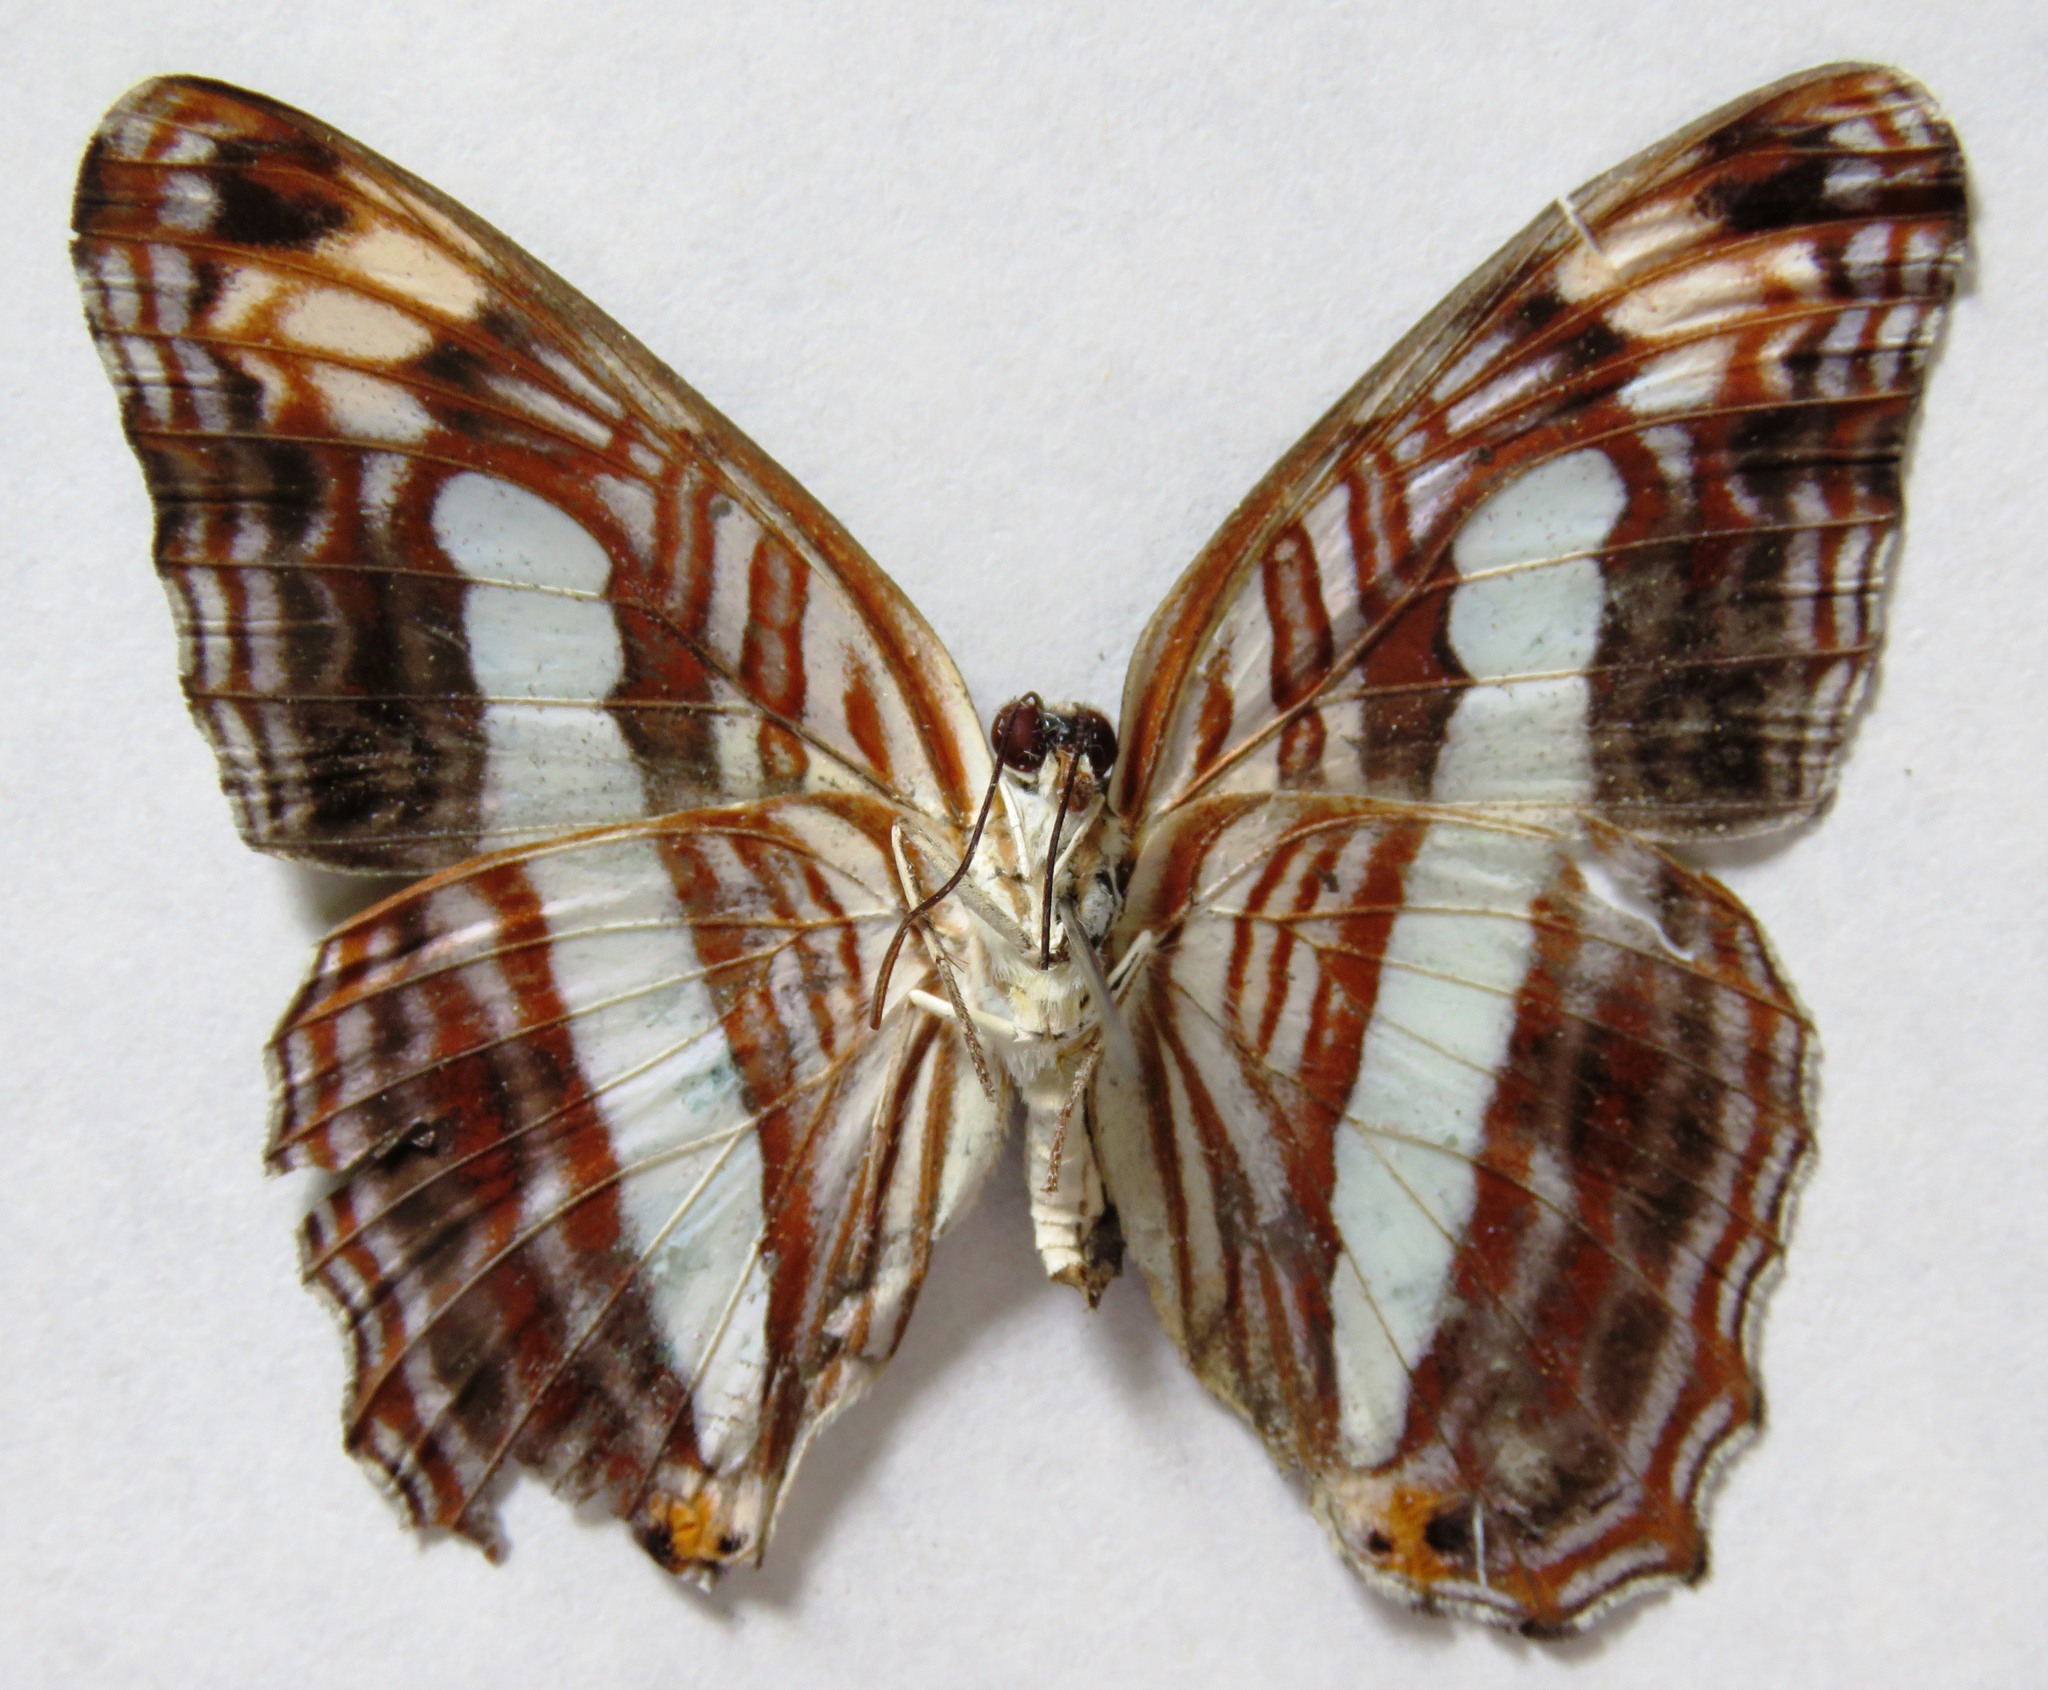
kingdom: Animalia
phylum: Arthropoda
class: Insecta
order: Lepidoptera
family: Nymphalidae
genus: Limenitis
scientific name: Limenitis iphiclus
